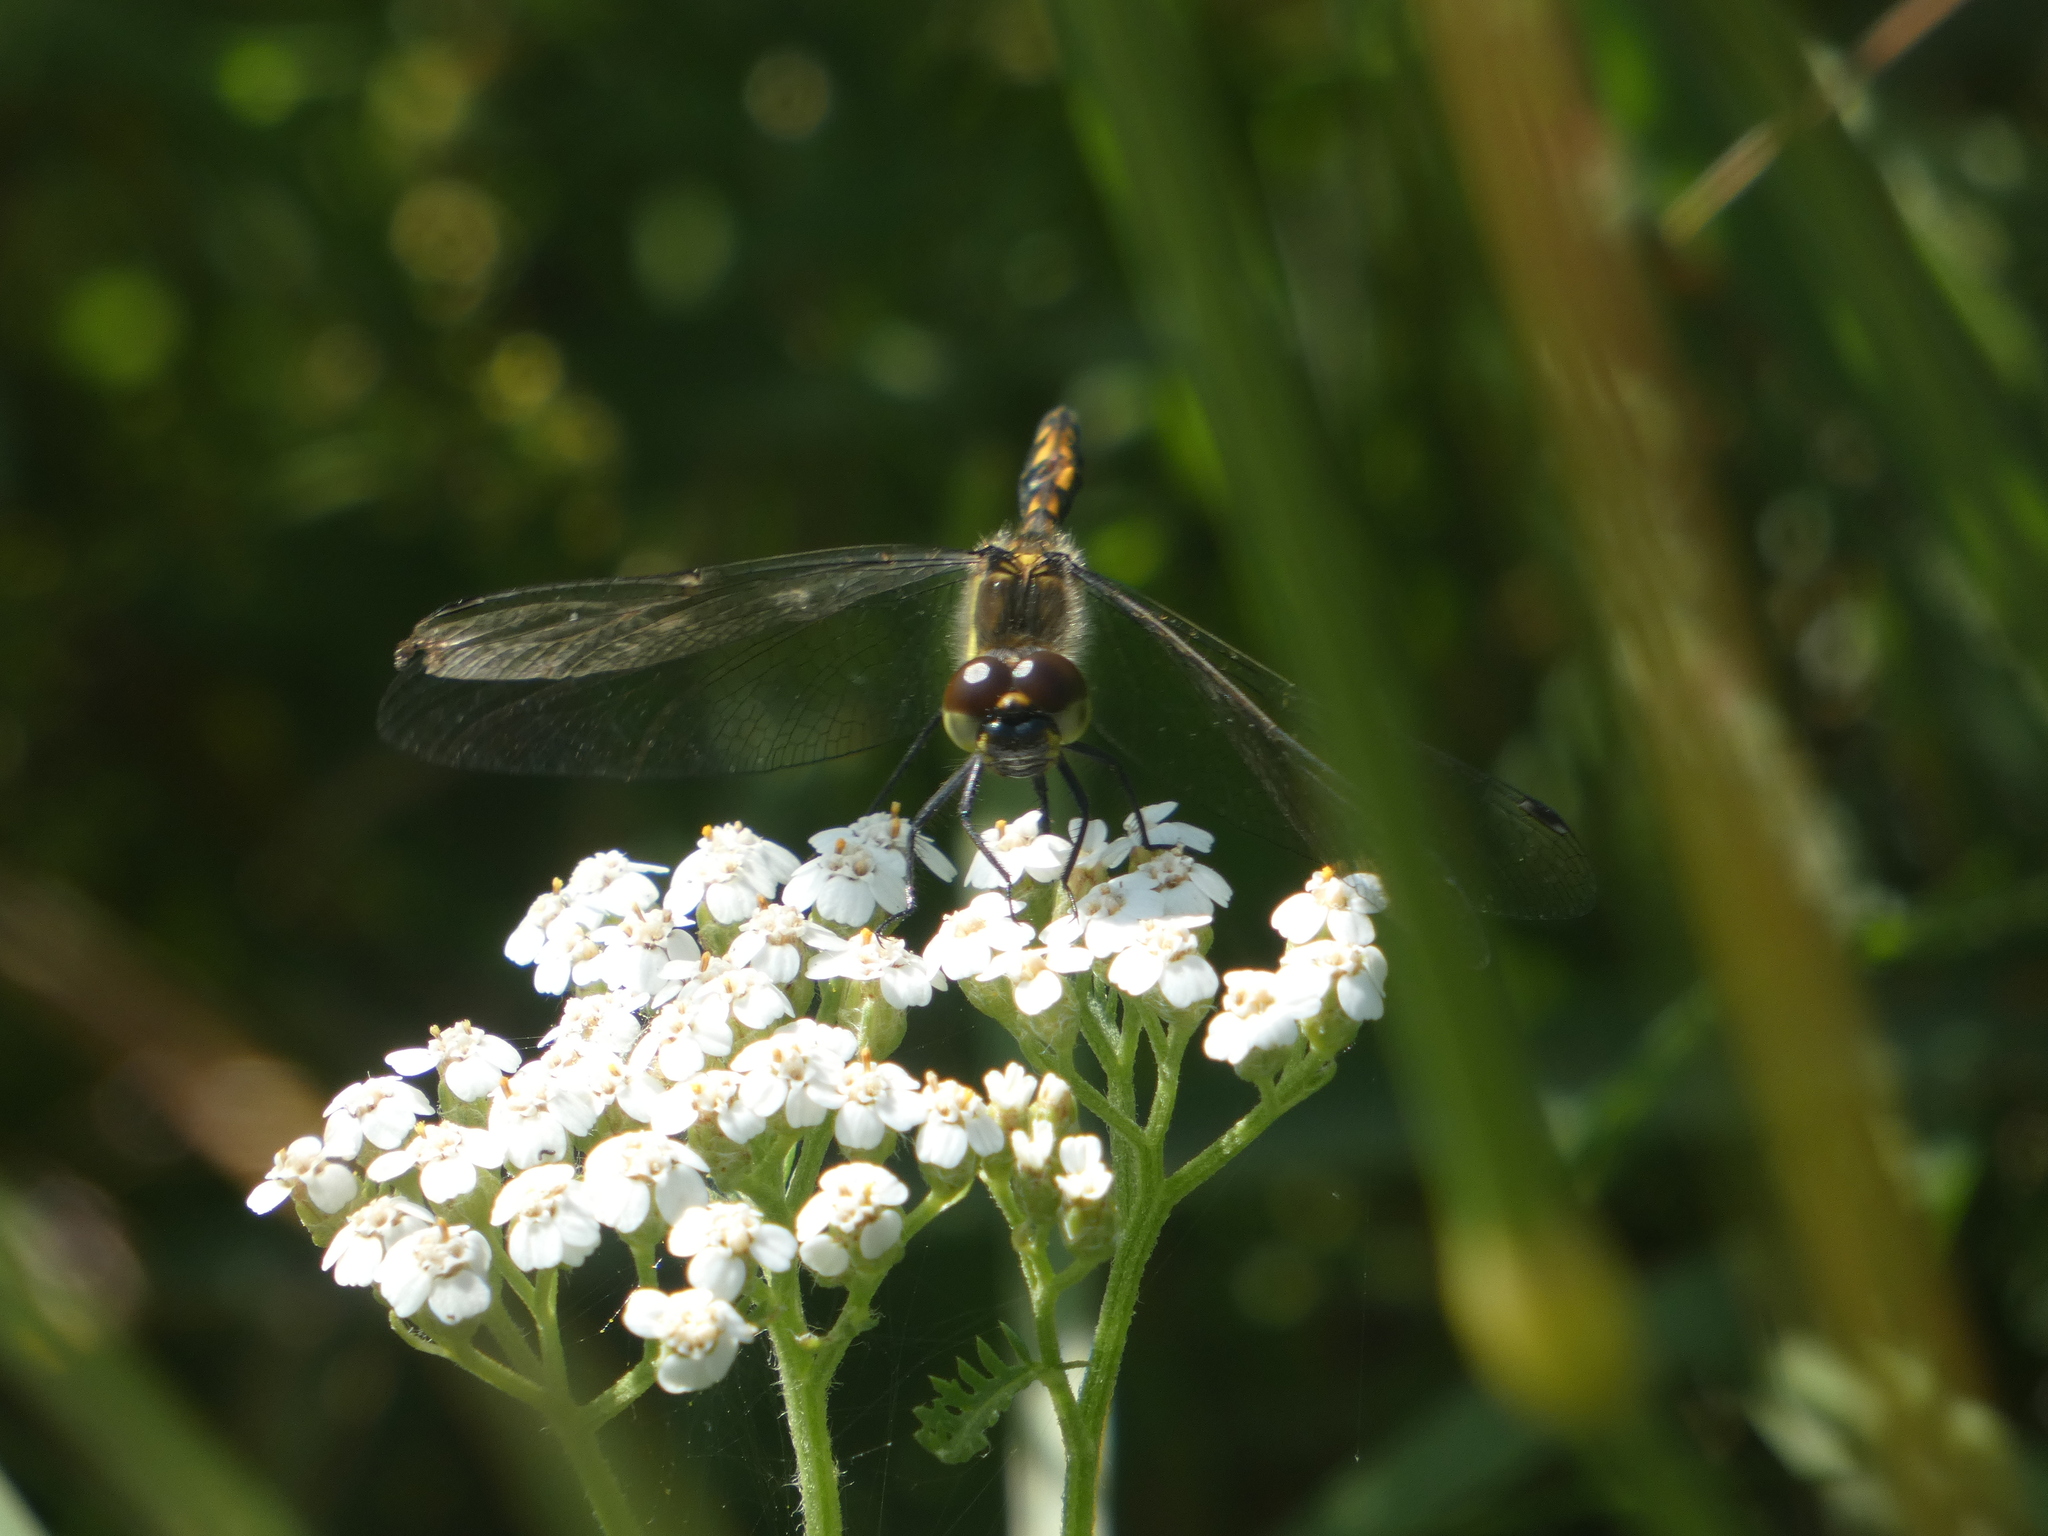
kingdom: Animalia
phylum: Arthropoda
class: Insecta
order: Odonata
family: Libellulidae
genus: Sympetrum
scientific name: Sympetrum danae
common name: Black darter
